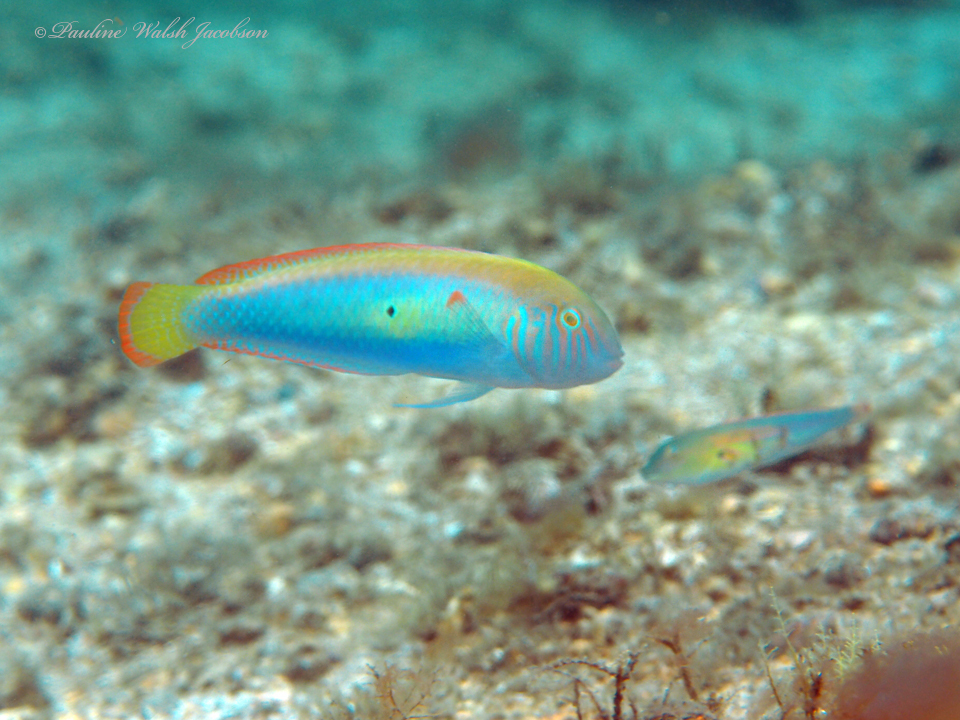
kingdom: Animalia
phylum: Chordata
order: Perciformes
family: Labridae
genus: Xyrichtys
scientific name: Xyrichtys splendens
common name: Green razorfish
